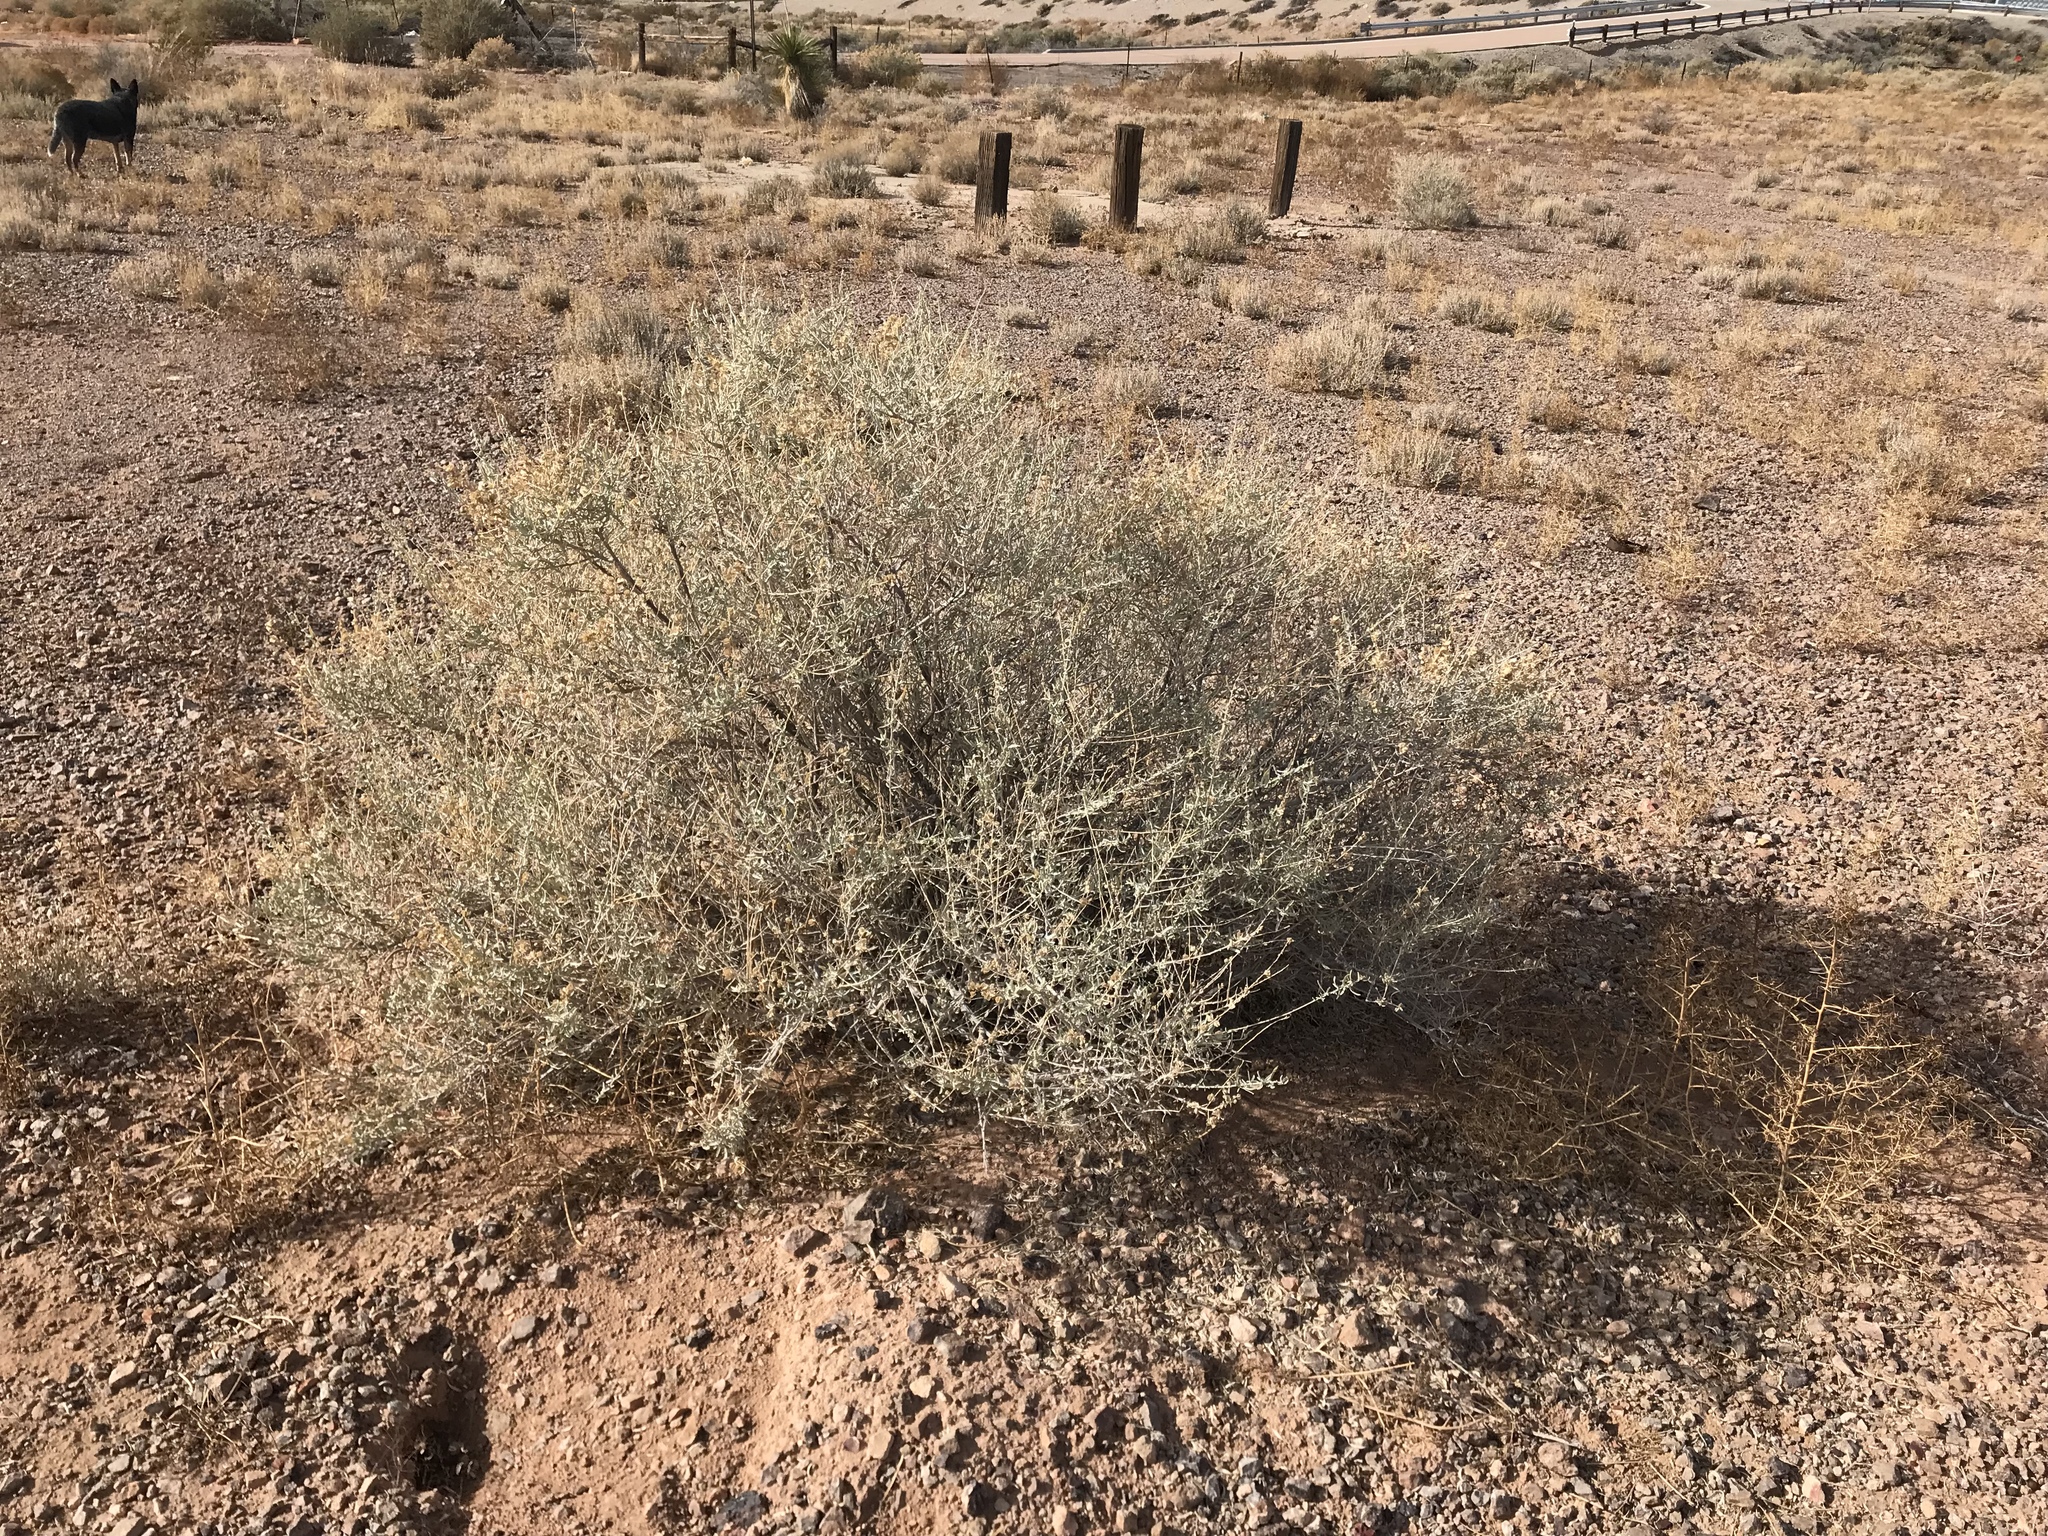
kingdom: Plantae
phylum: Tracheophyta
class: Magnoliopsida
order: Caryophyllales
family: Amaranthaceae
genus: Atriplex
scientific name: Atriplex canescens
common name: Four-wing saltbush
